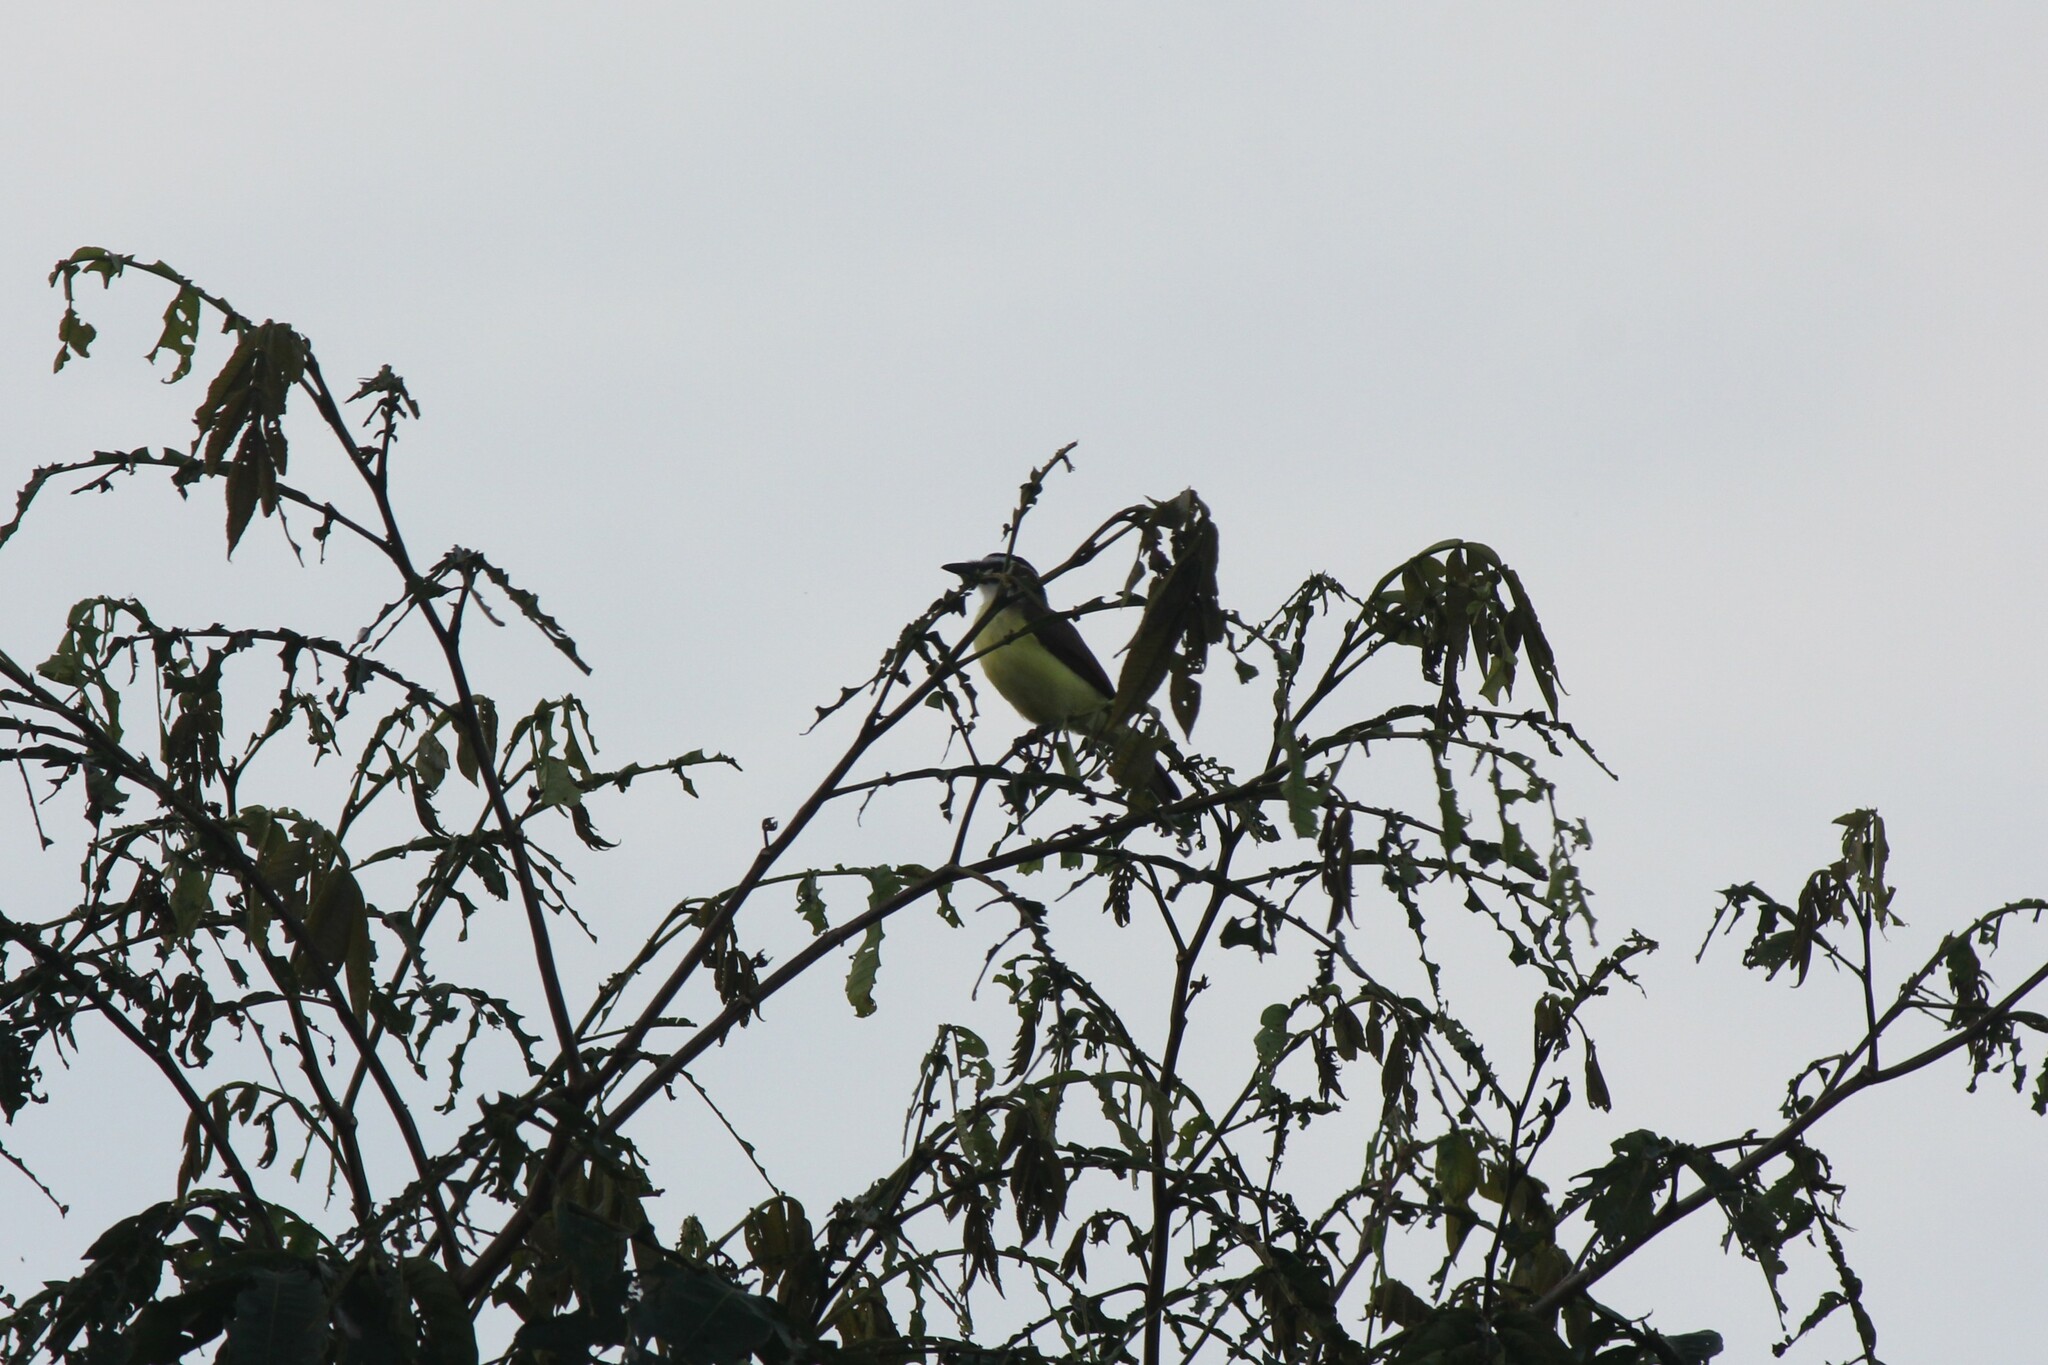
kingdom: Animalia
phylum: Chordata
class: Aves
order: Passeriformes
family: Tyrannidae
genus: Pitangus
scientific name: Pitangus sulphuratus
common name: Great kiskadee
